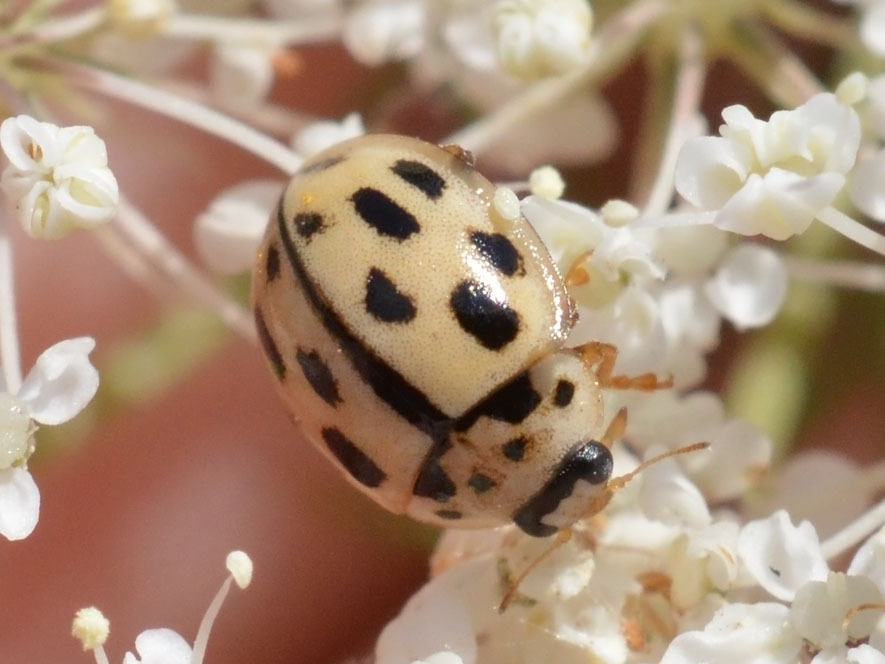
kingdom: Animalia
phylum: Arthropoda
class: Insecta
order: Coleoptera
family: Coccinellidae
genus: Propylaea
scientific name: Propylaea quatuordecimpunctata
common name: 14-spotted ladybird beetle
